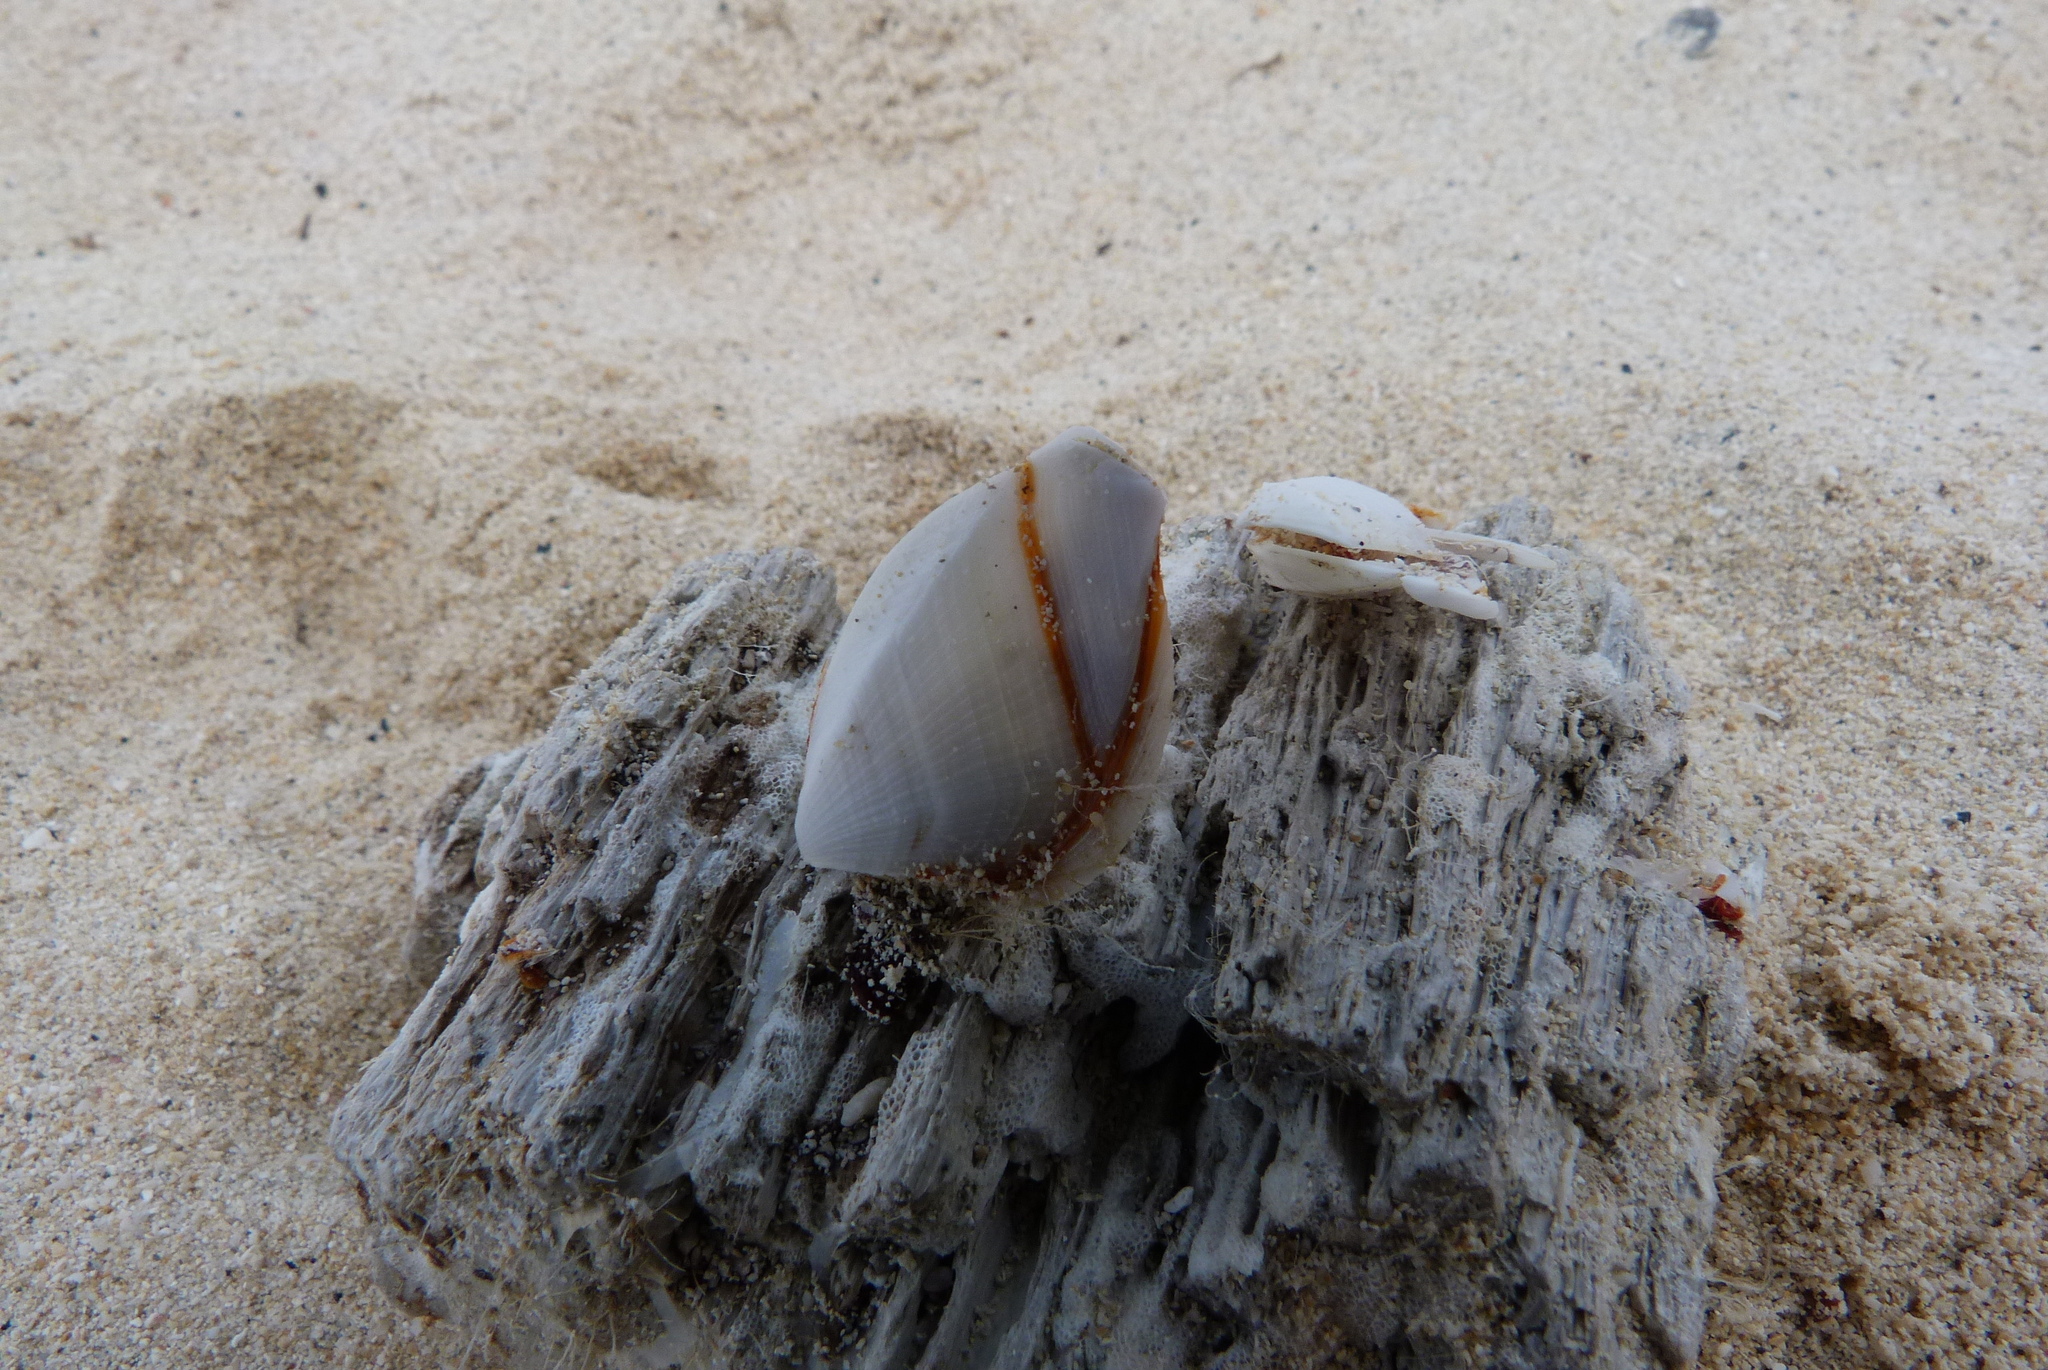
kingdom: Animalia
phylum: Arthropoda
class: Maxillopoda
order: Pedunculata
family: Lepadidae
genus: Lepas
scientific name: Lepas anserifera
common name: Goose barnacle
